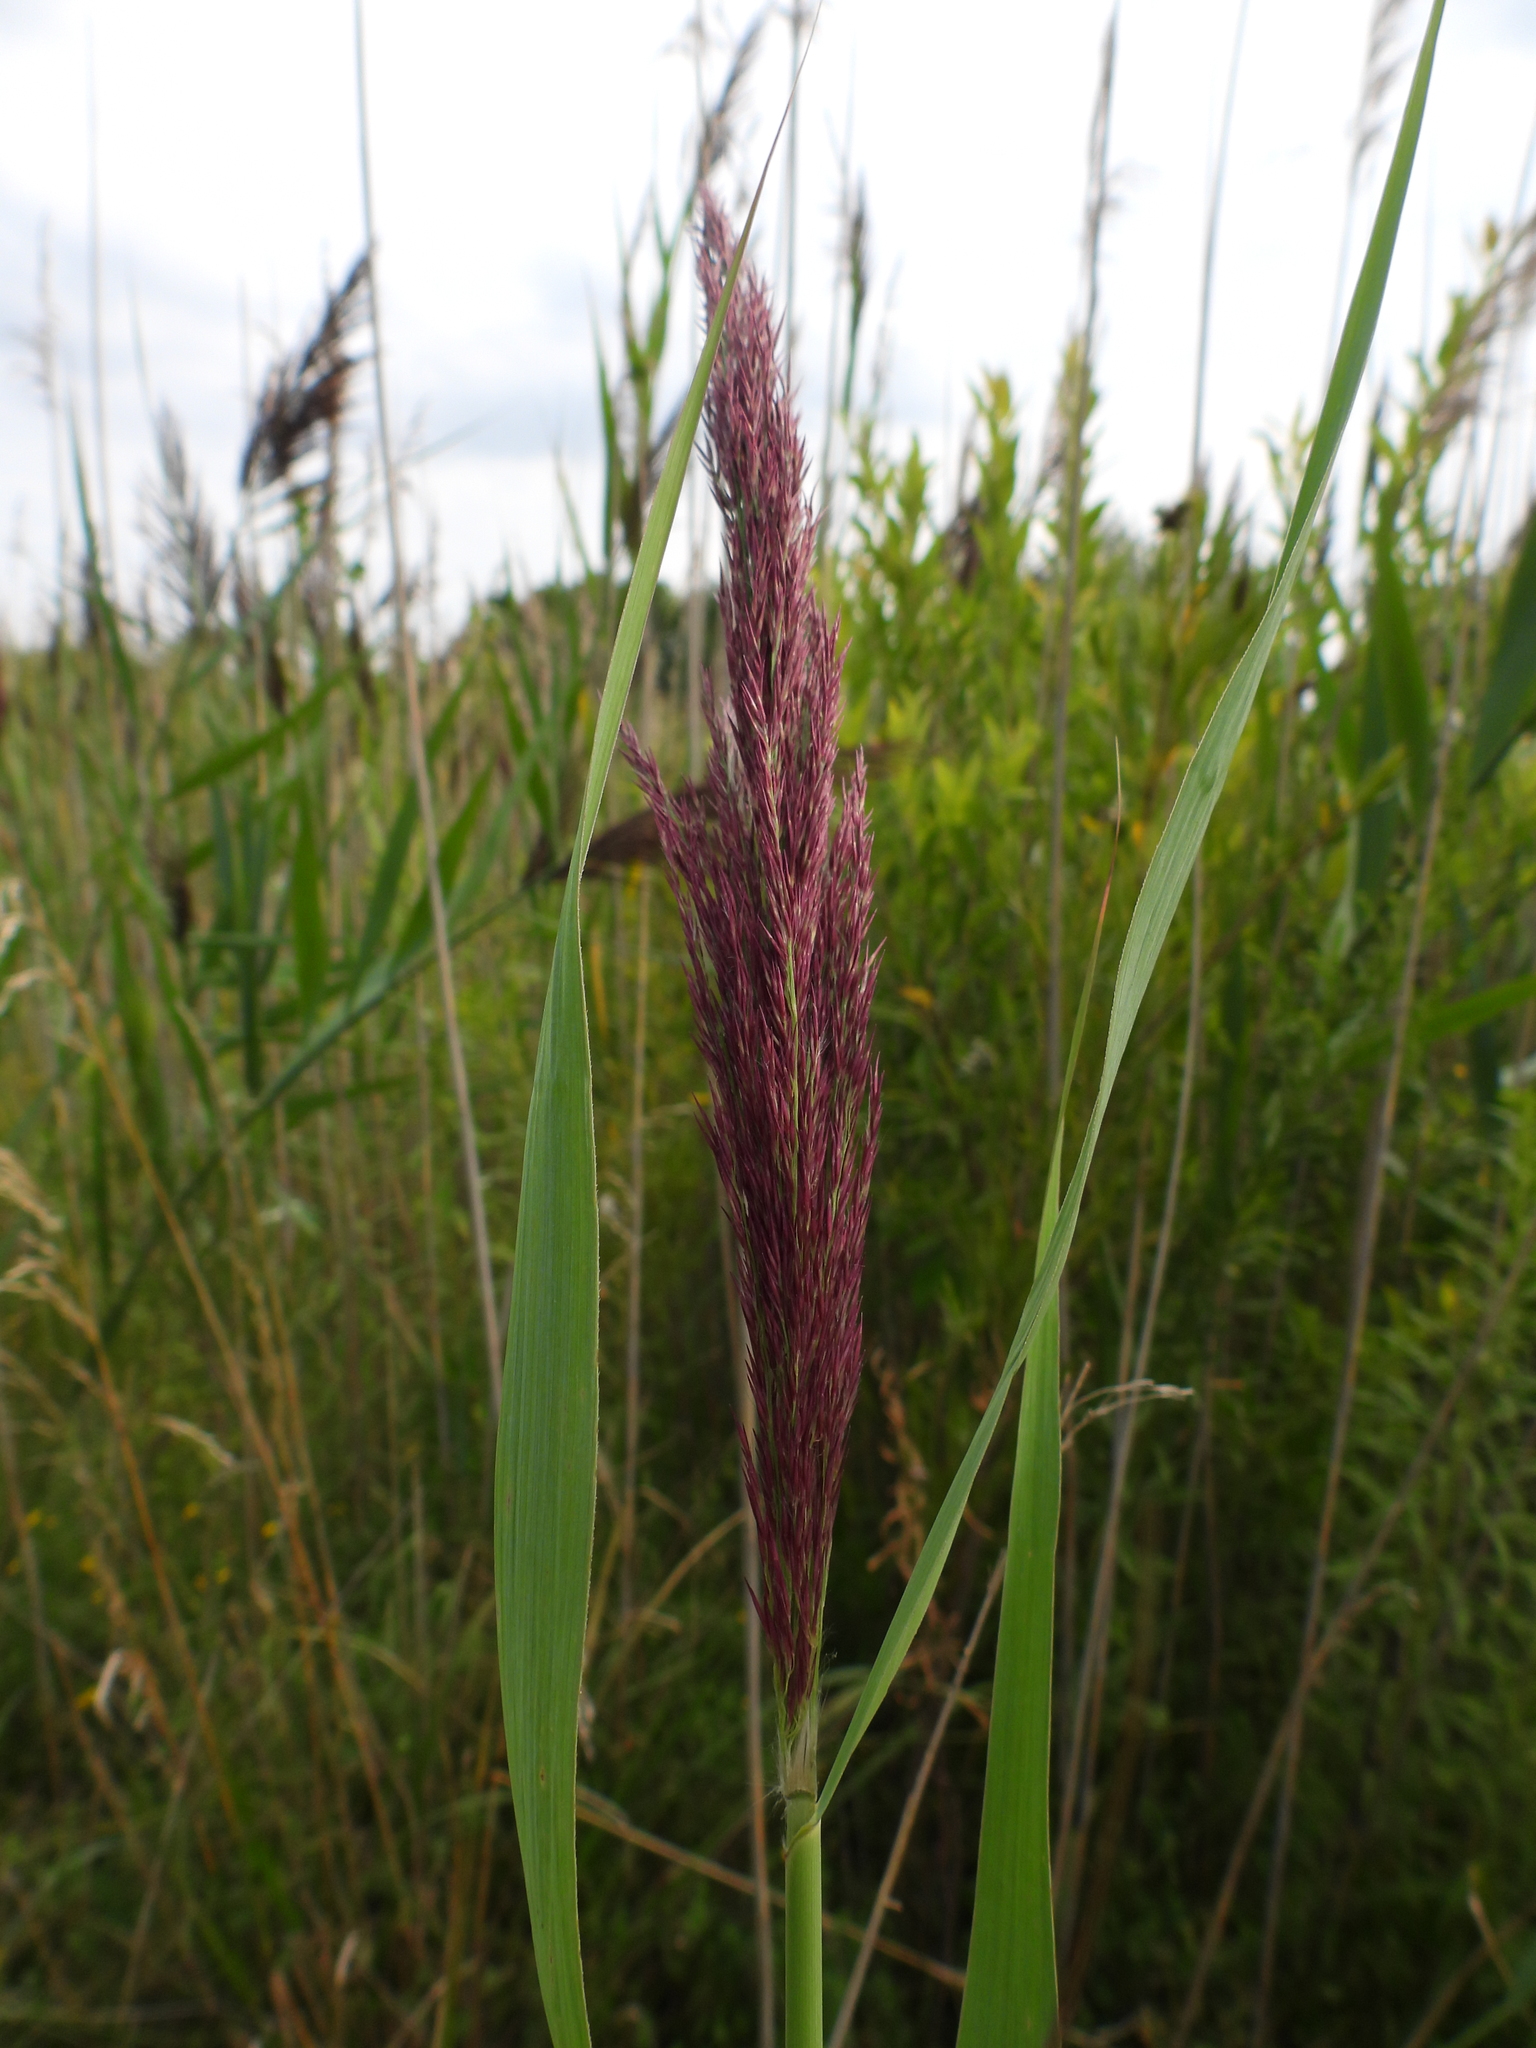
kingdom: Plantae
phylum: Tracheophyta
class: Liliopsida
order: Poales
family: Poaceae
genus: Phragmites
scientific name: Phragmites australis
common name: Common reed
